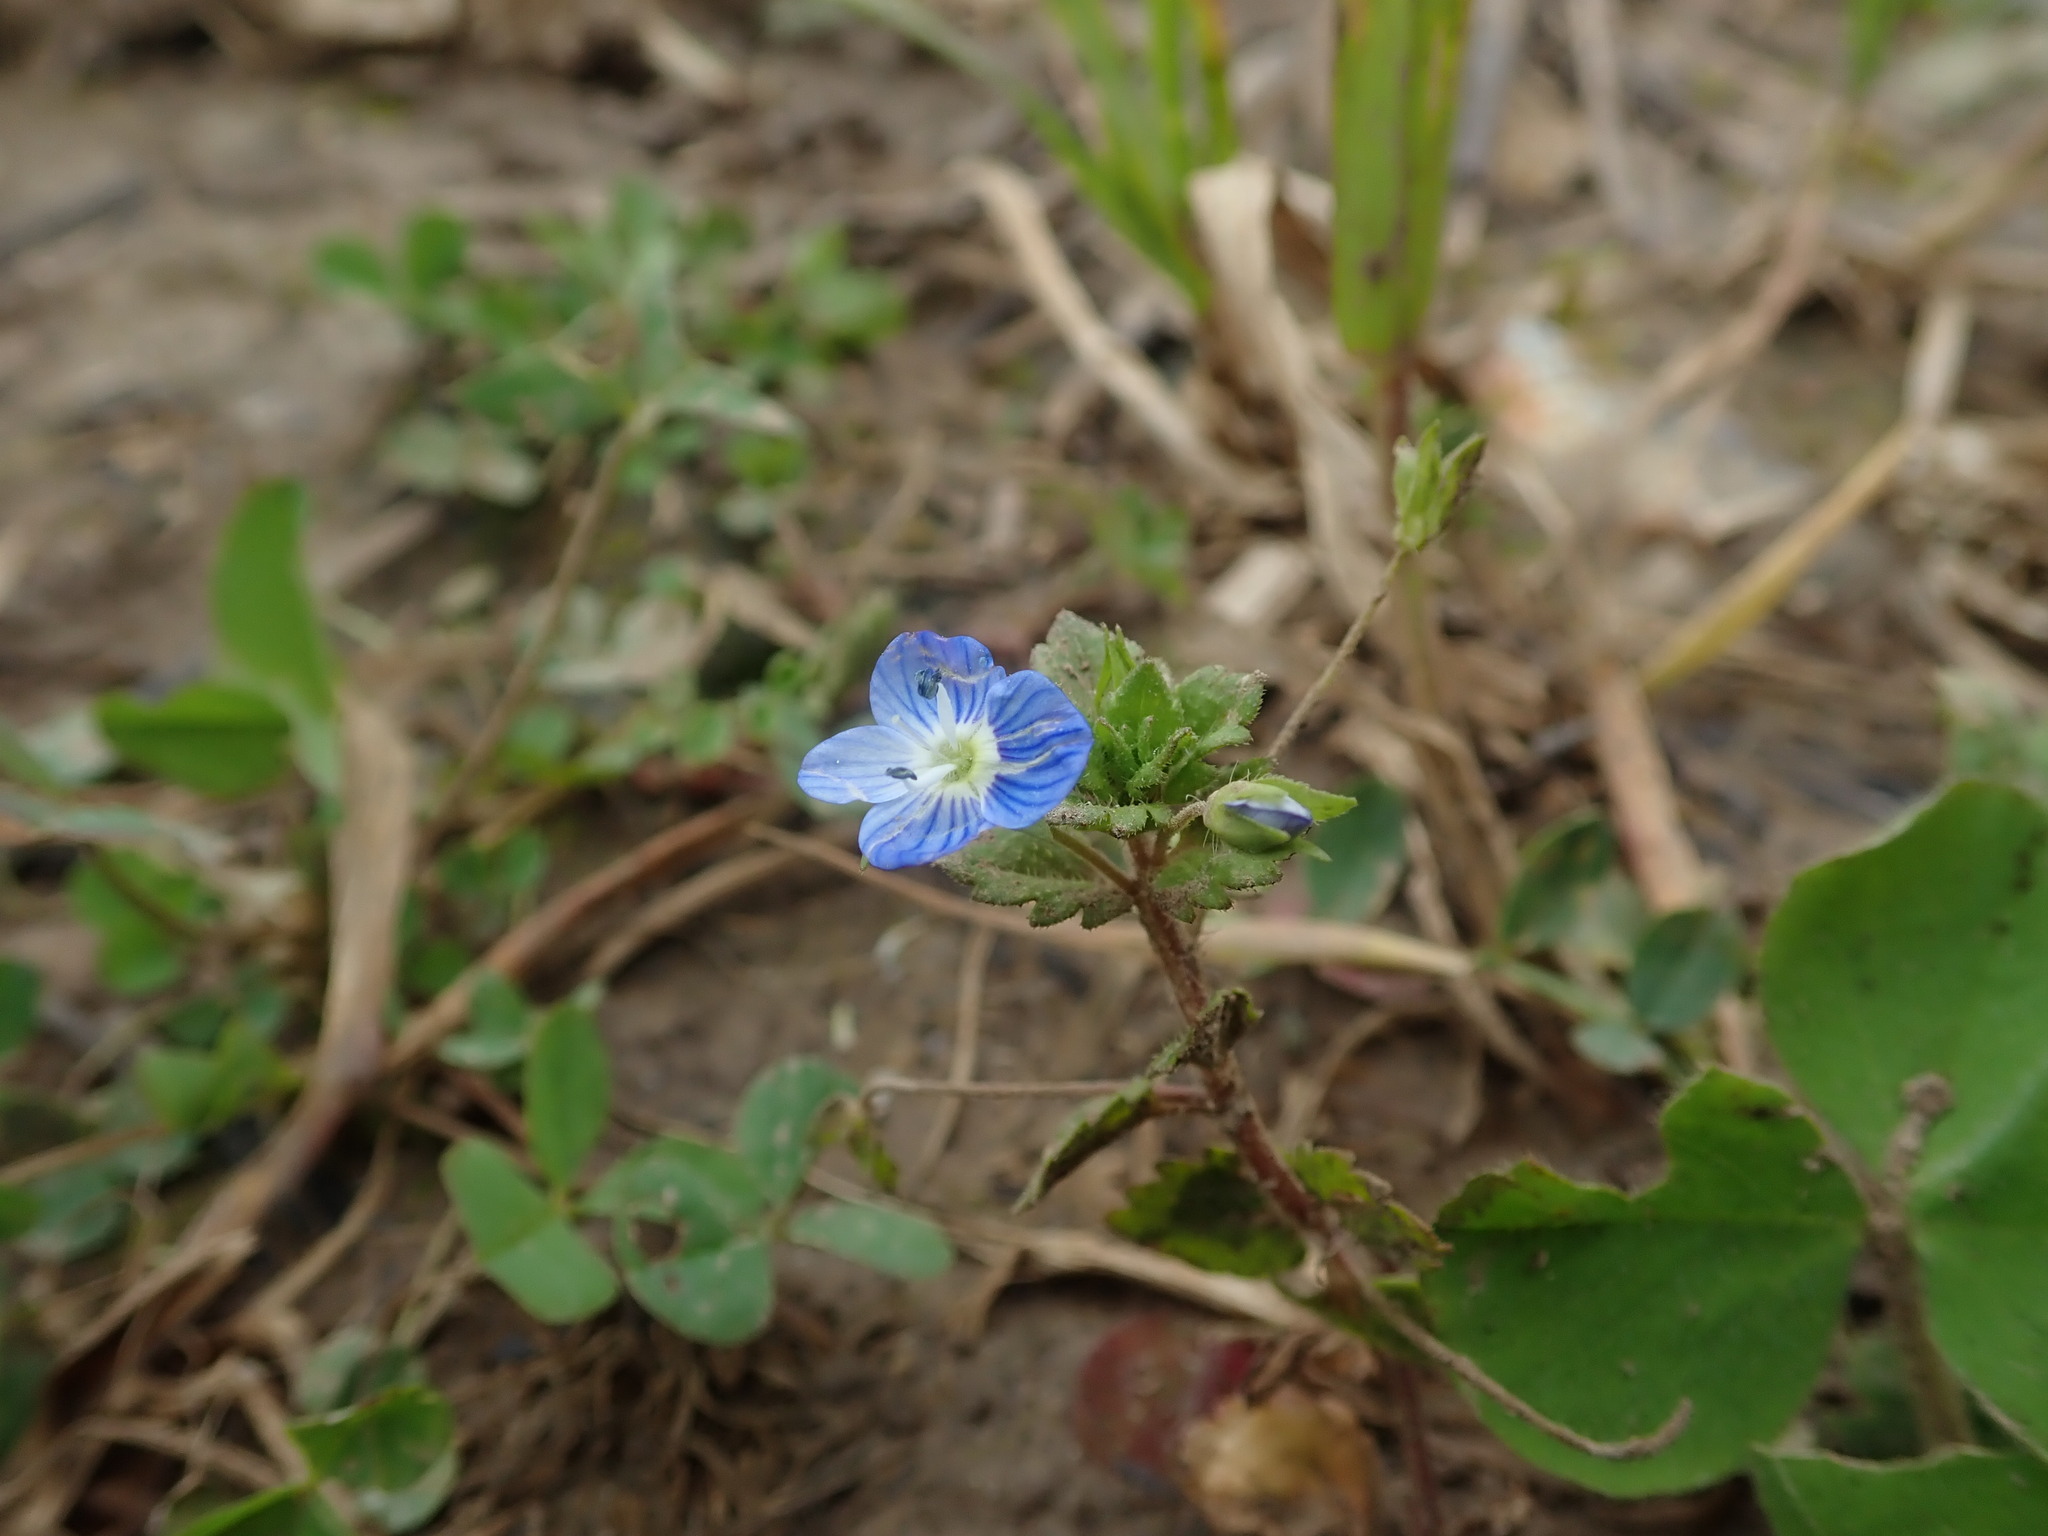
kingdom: Plantae
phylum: Tracheophyta
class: Magnoliopsida
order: Lamiales
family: Plantaginaceae
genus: Veronica
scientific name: Veronica persica
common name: Common field-speedwell
